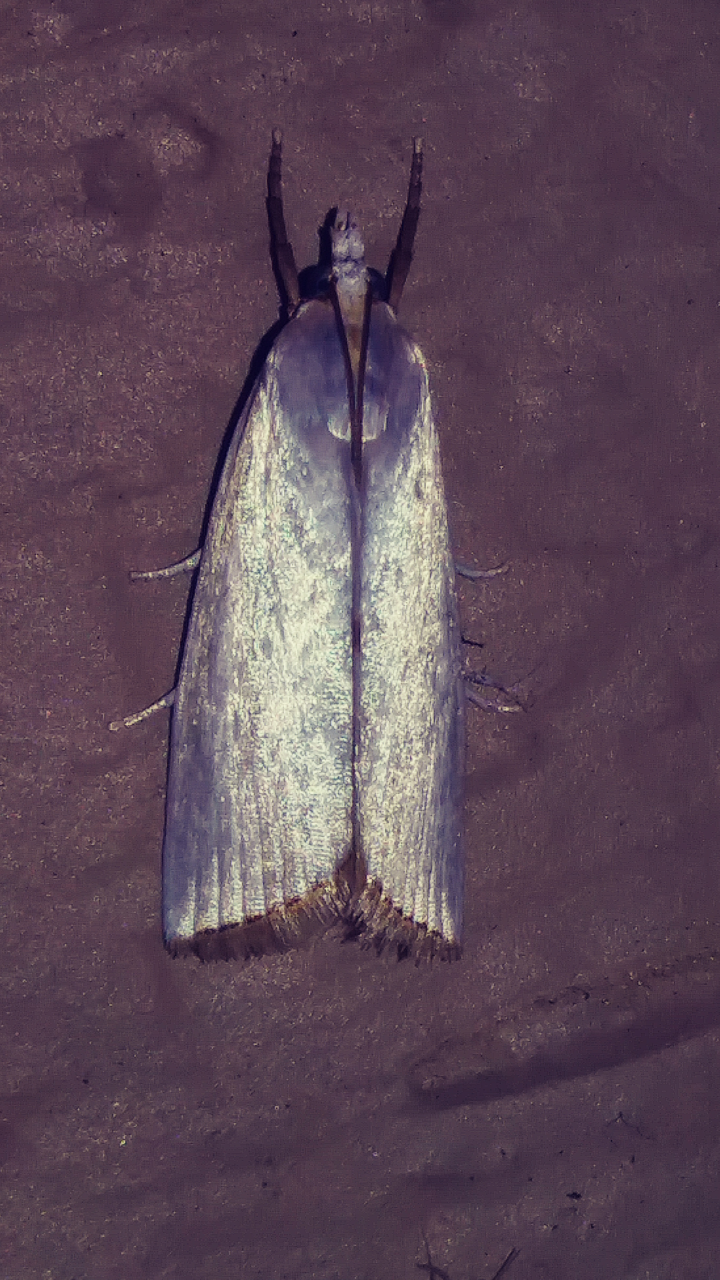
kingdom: Animalia
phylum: Arthropoda
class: Insecta
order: Lepidoptera
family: Crambidae
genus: Argyria
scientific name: Argyria nivalis
